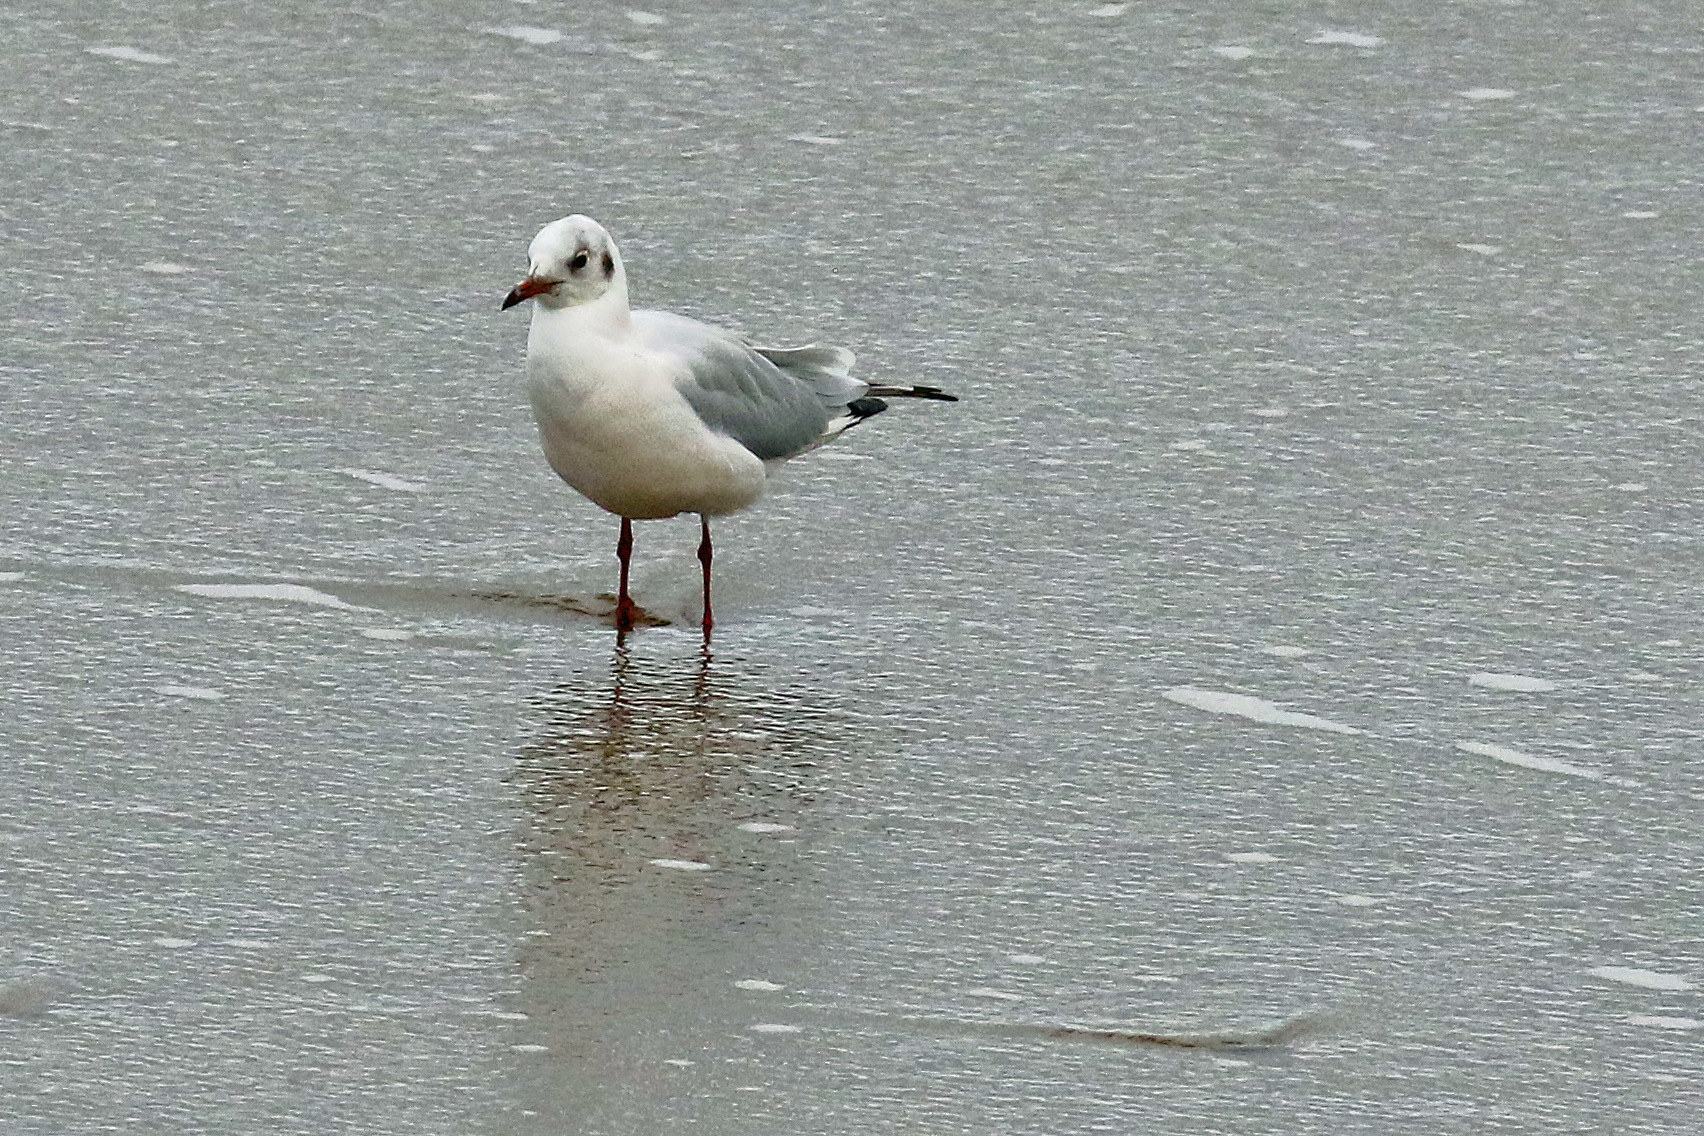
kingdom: Animalia
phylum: Chordata
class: Aves
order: Charadriiformes
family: Laridae
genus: Chroicocephalus
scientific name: Chroicocephalus ridibundus
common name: Black-headed gull
